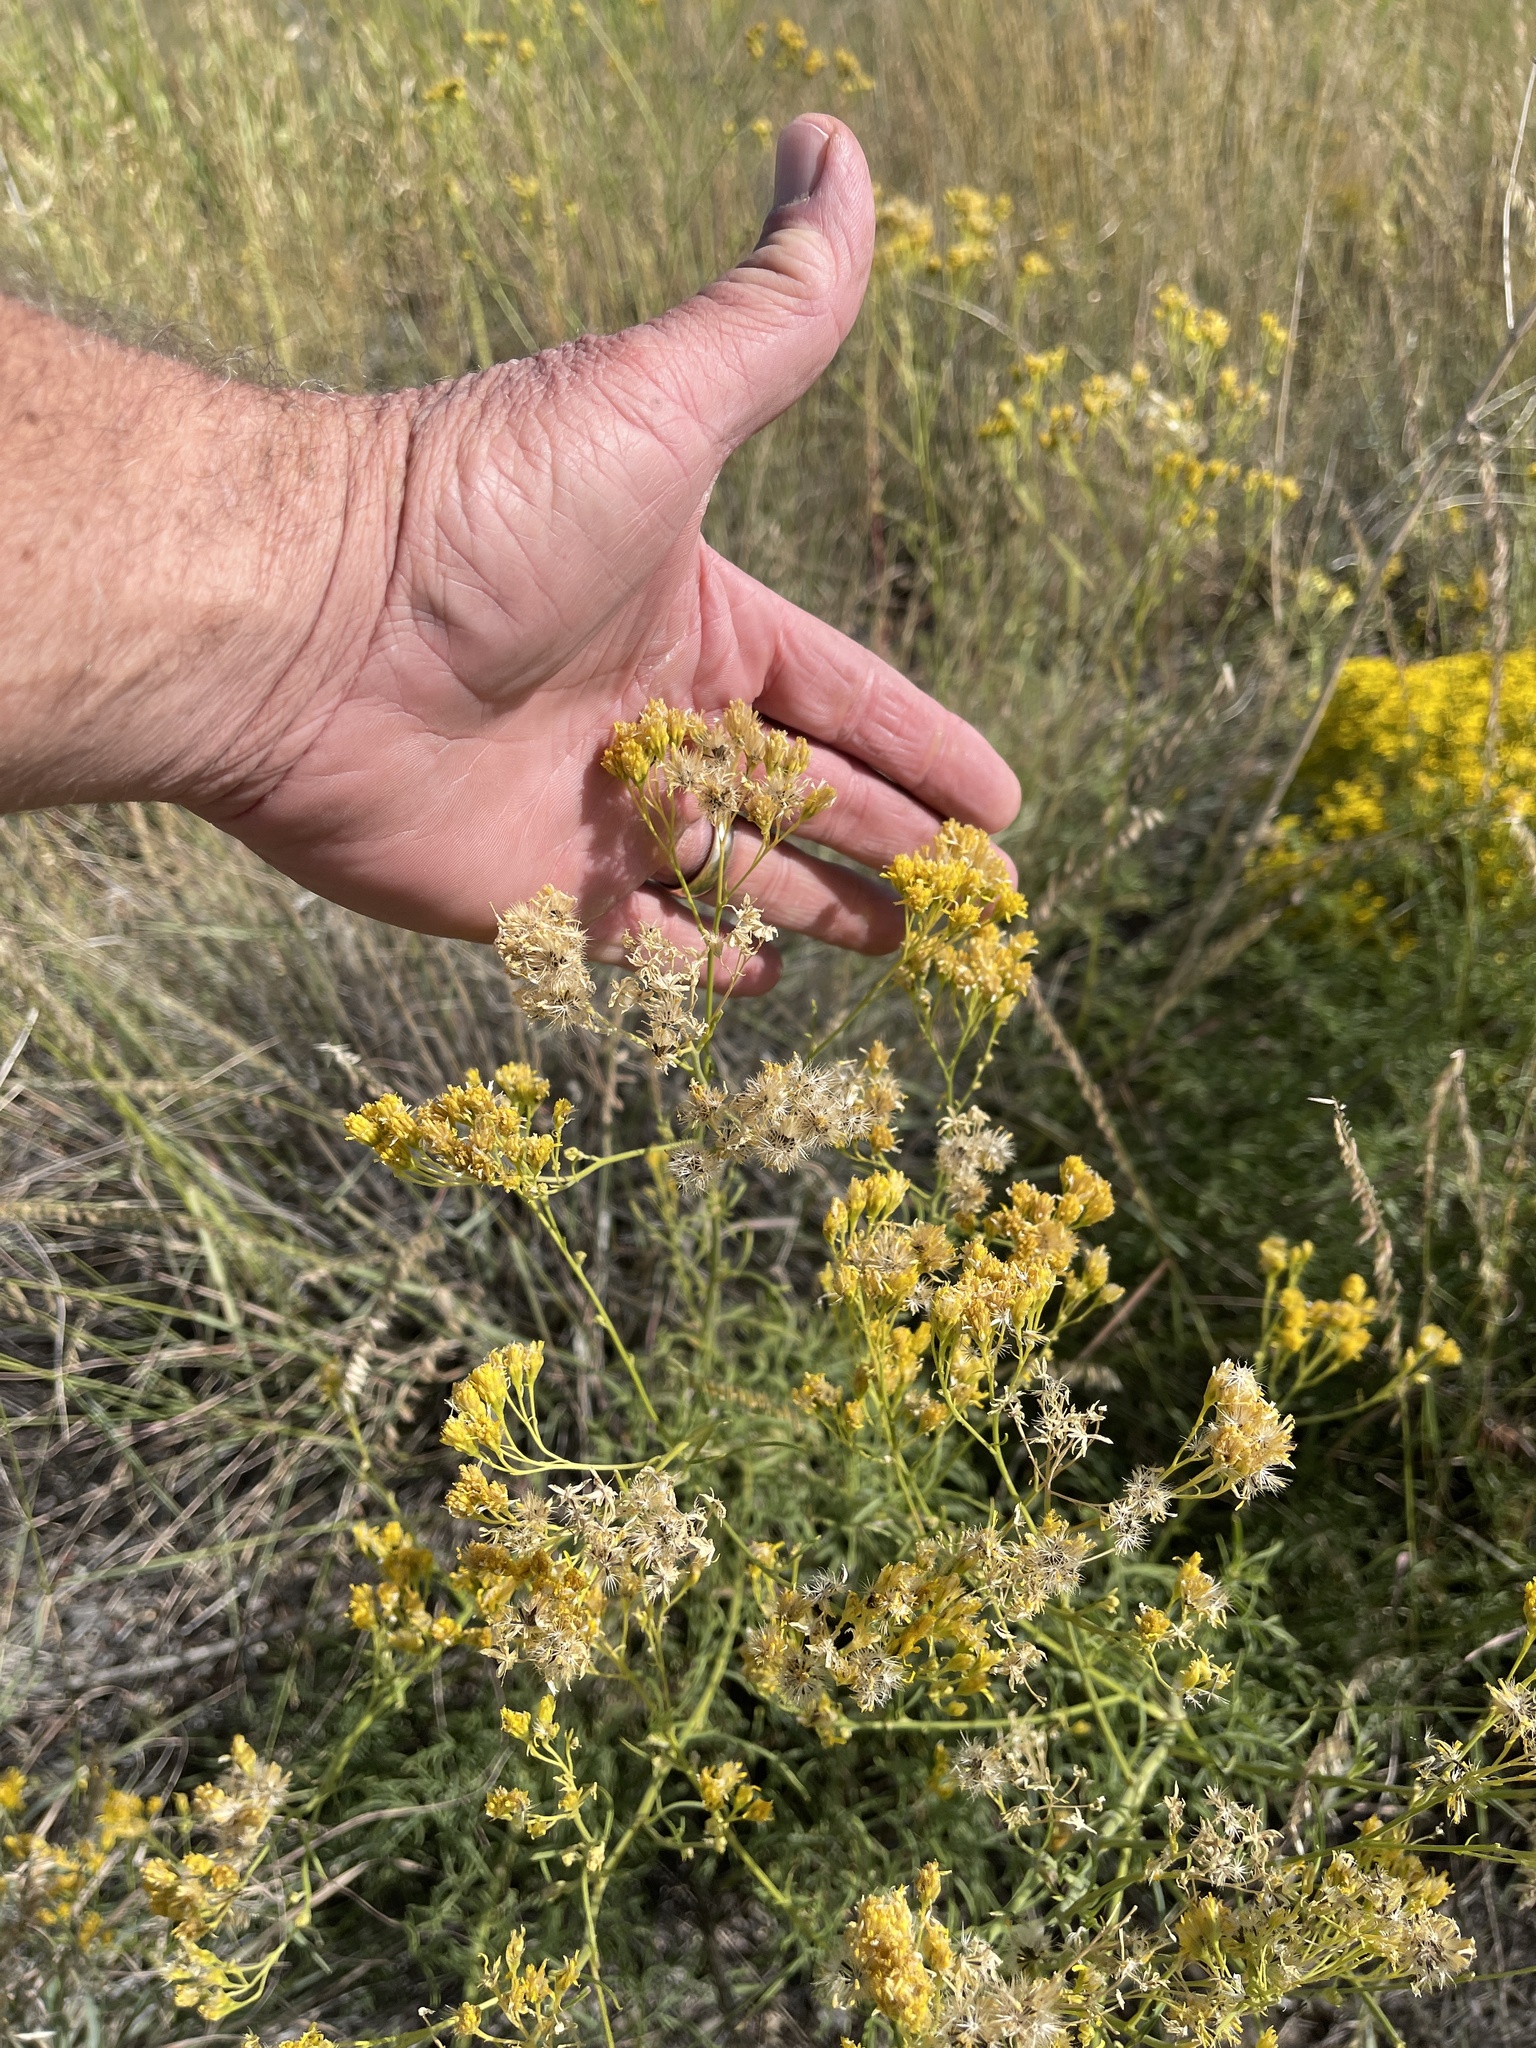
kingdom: Plantae
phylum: Tracheophyta
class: Magnoliopsida
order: Asterales
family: Asteraceae
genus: Hymenothrix
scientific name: Hymenothrix wislizeni
